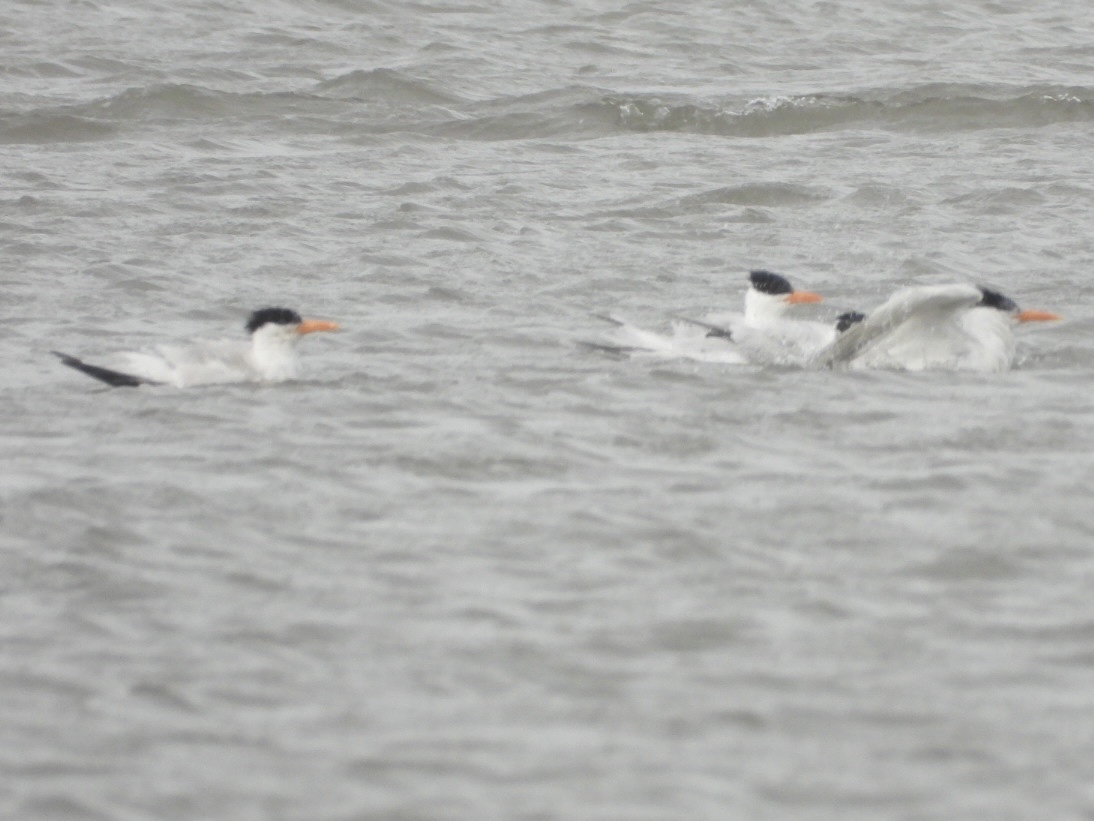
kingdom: Animalia
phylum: Chordata
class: Aves
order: Charadriiformes
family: Laridae
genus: Thalasseus
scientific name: Thalasseus maximus
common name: Royal tern
